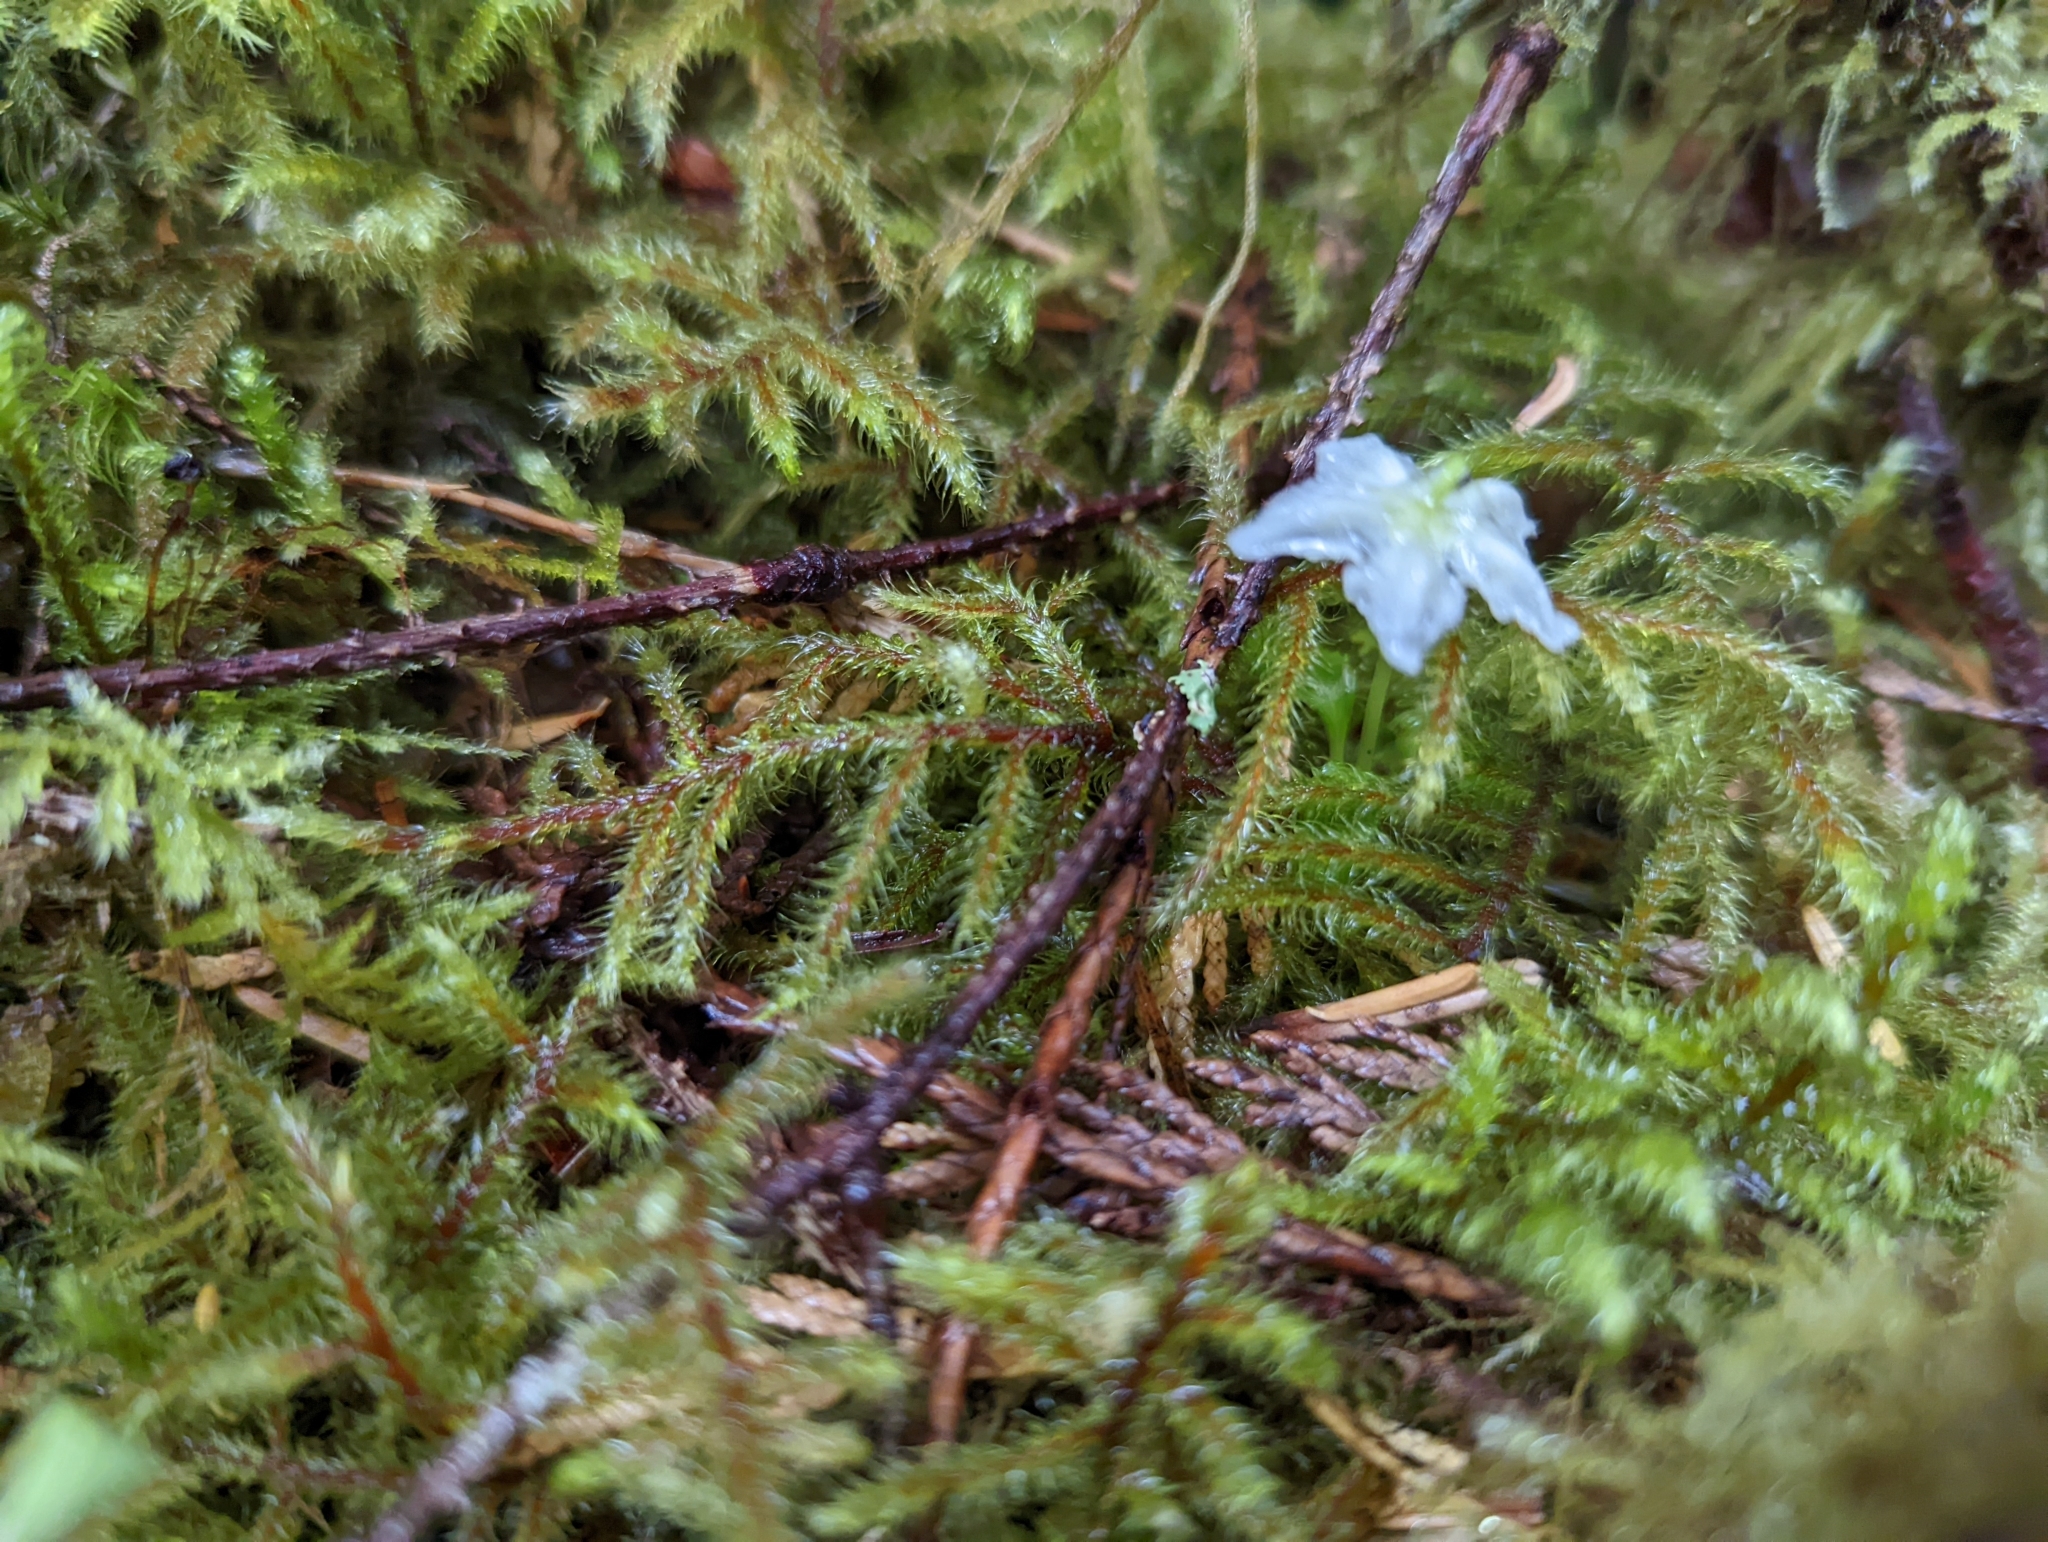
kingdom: Plantae
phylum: Tracheophyta
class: Magnoliopsida
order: Ericales
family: Ericaceae
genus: Moneses
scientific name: Moneses uniflora
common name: One-flowered wintergreen
